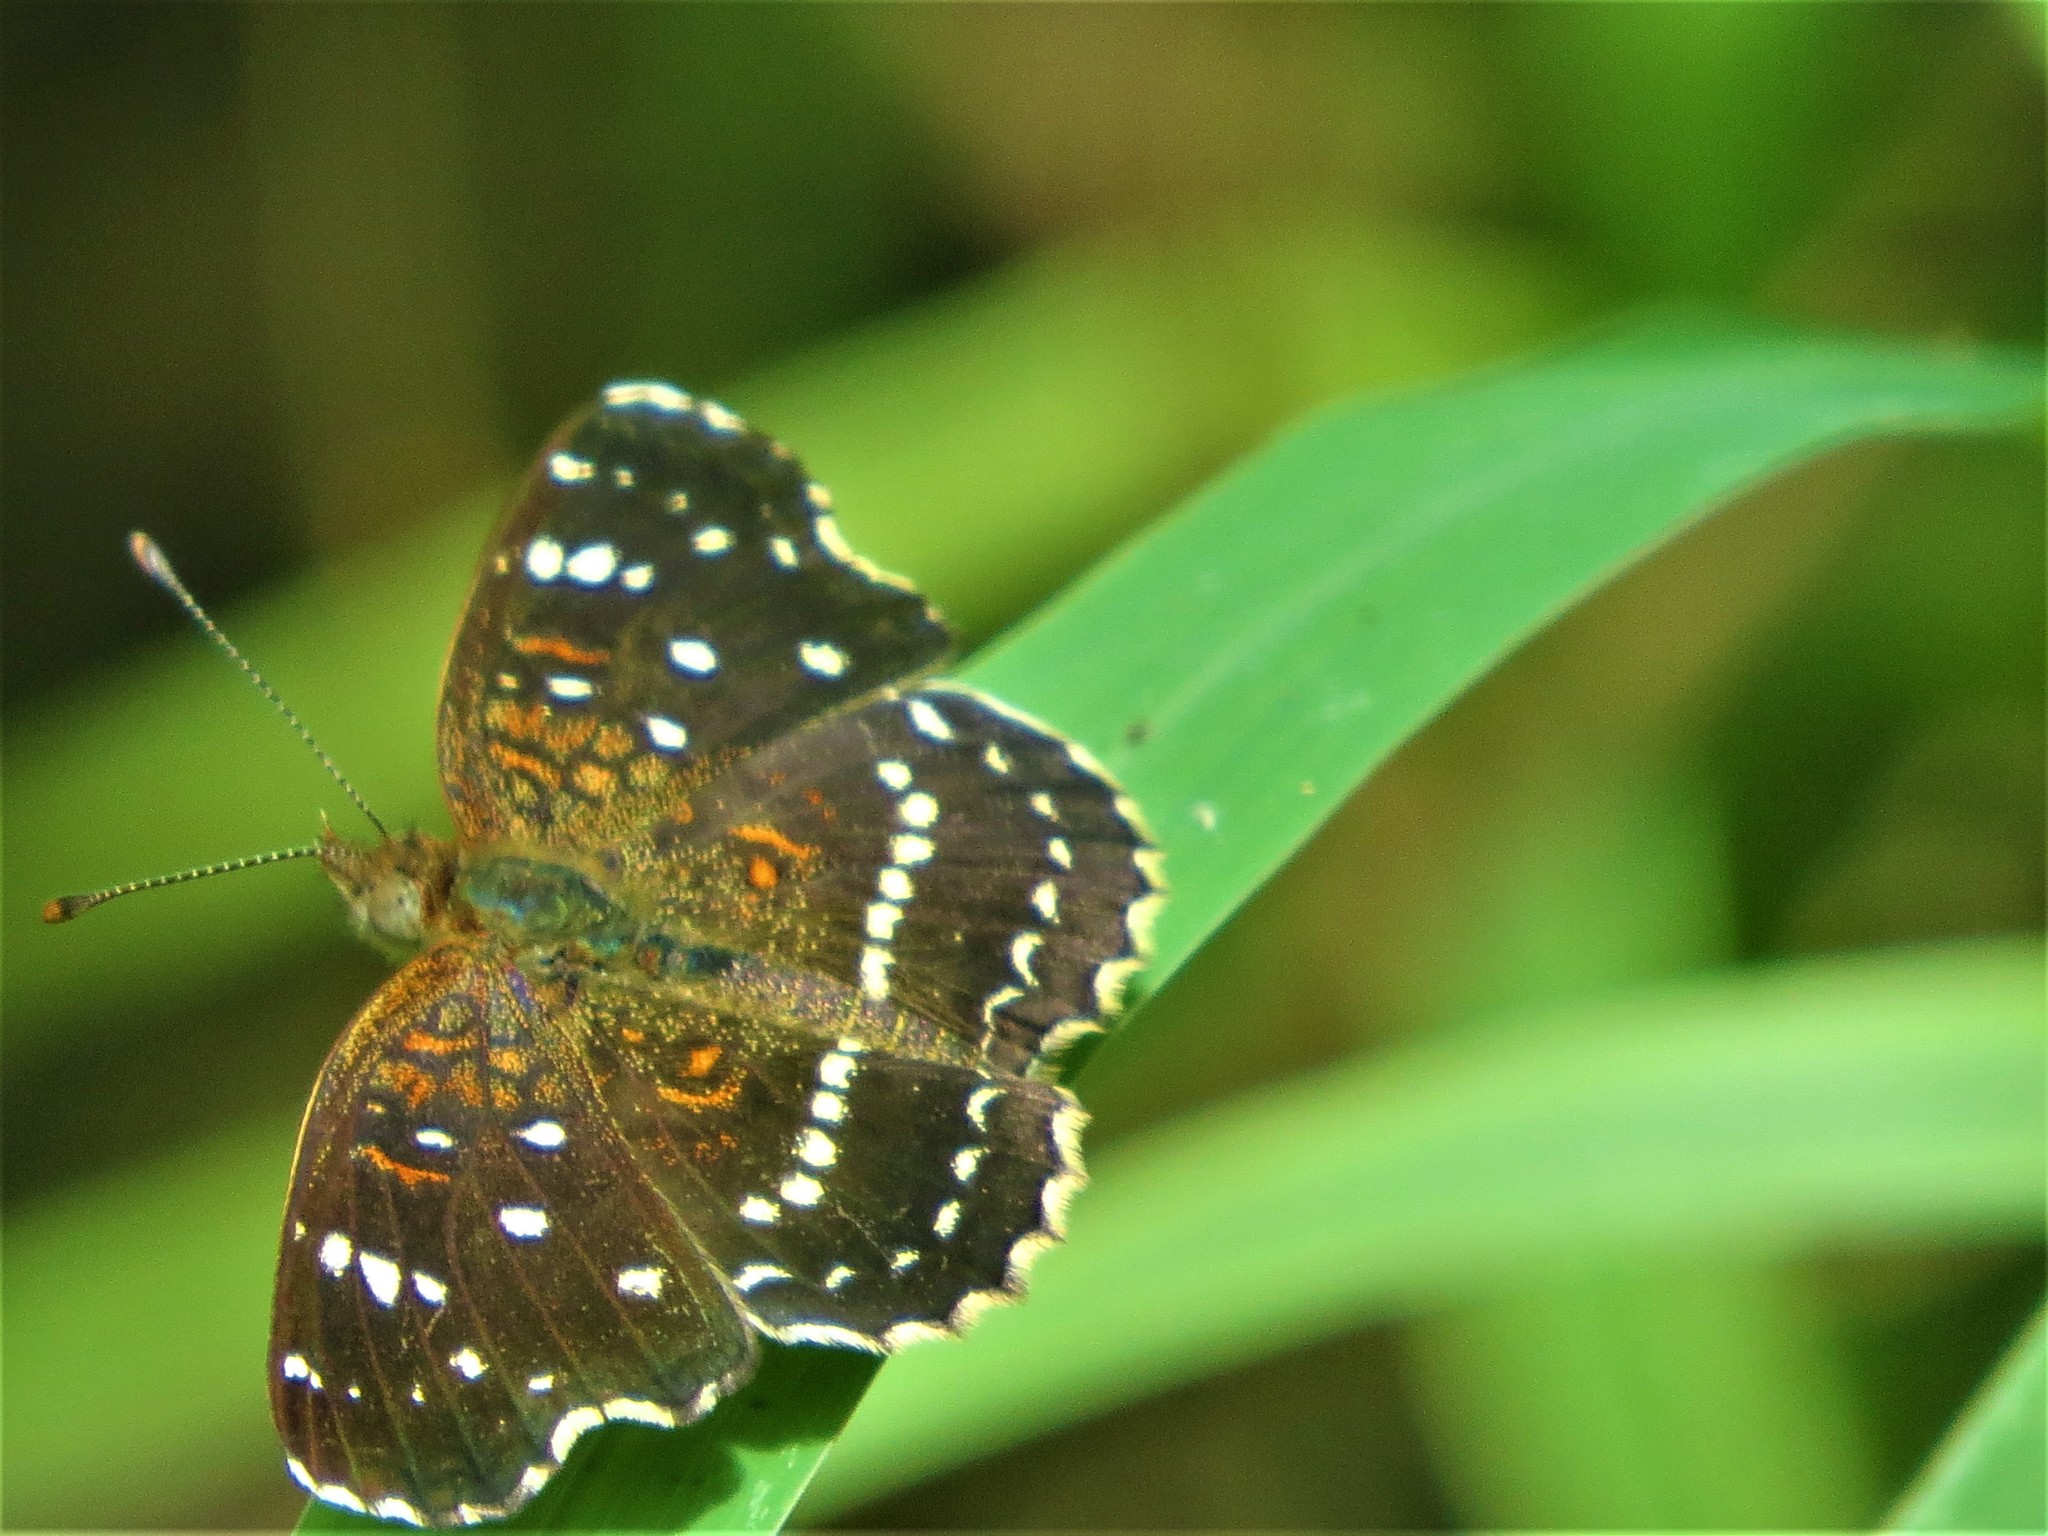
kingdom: Animalia
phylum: Arthropoda
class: Insecta
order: Lepidoptera
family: Nymphalidae
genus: Anthanassa
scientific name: Anthanassa texana
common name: Texan crescent
